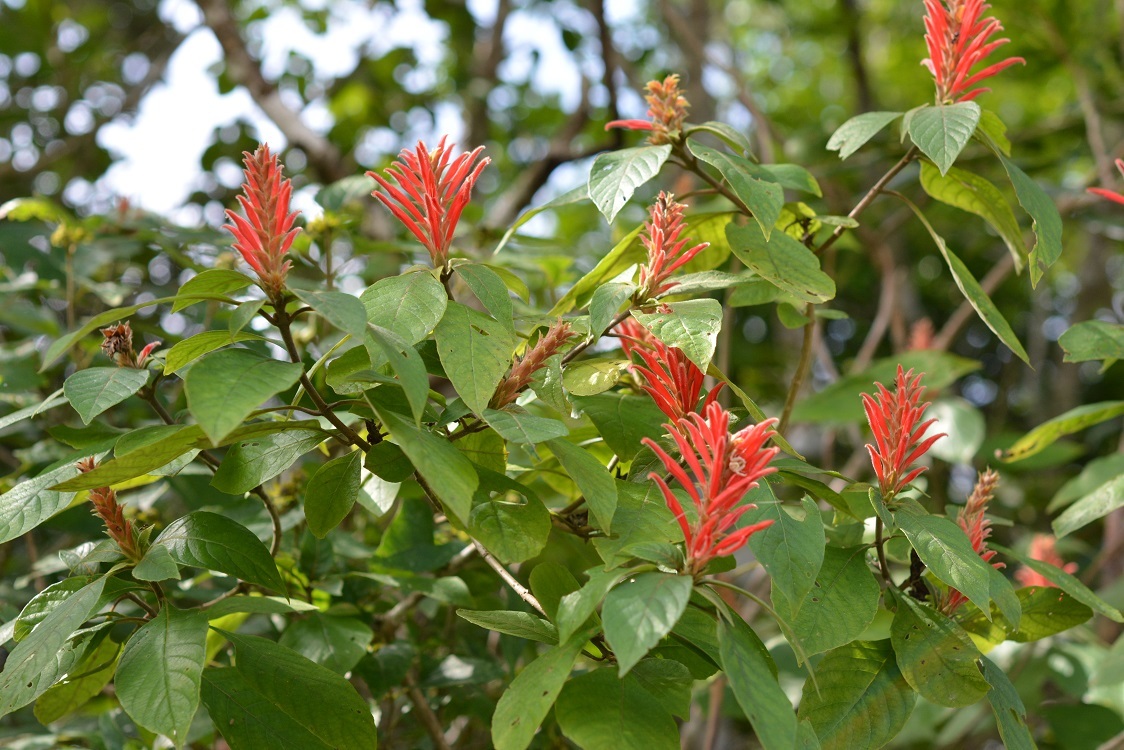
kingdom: Plantae
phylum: Tracheophyta
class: Magnoliopsida
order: Lamiales
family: Acanthaceae
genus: Aphelandra
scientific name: Aphelandra scabra
